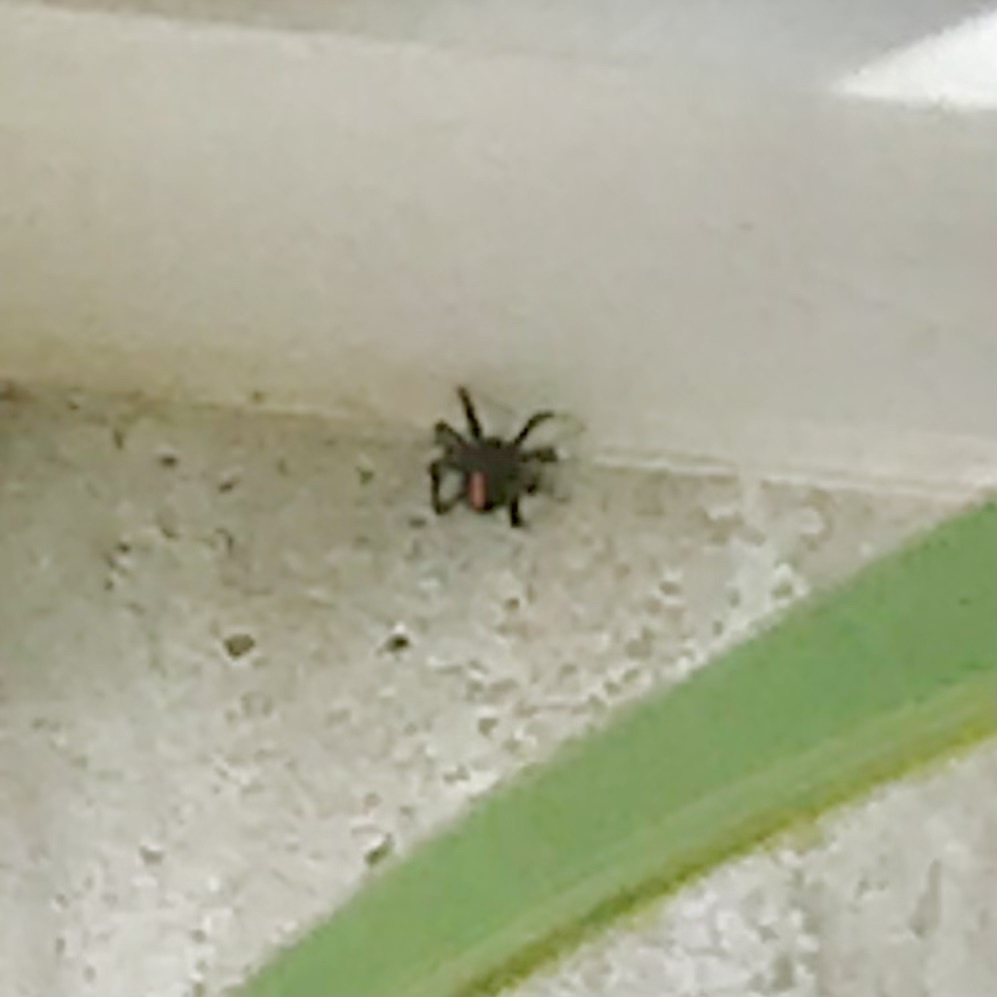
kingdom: Animalia
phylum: Arthropoda
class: Arachnida
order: Araneae
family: Theridiidae
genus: Latrodectus
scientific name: Latrodectus hasselti
